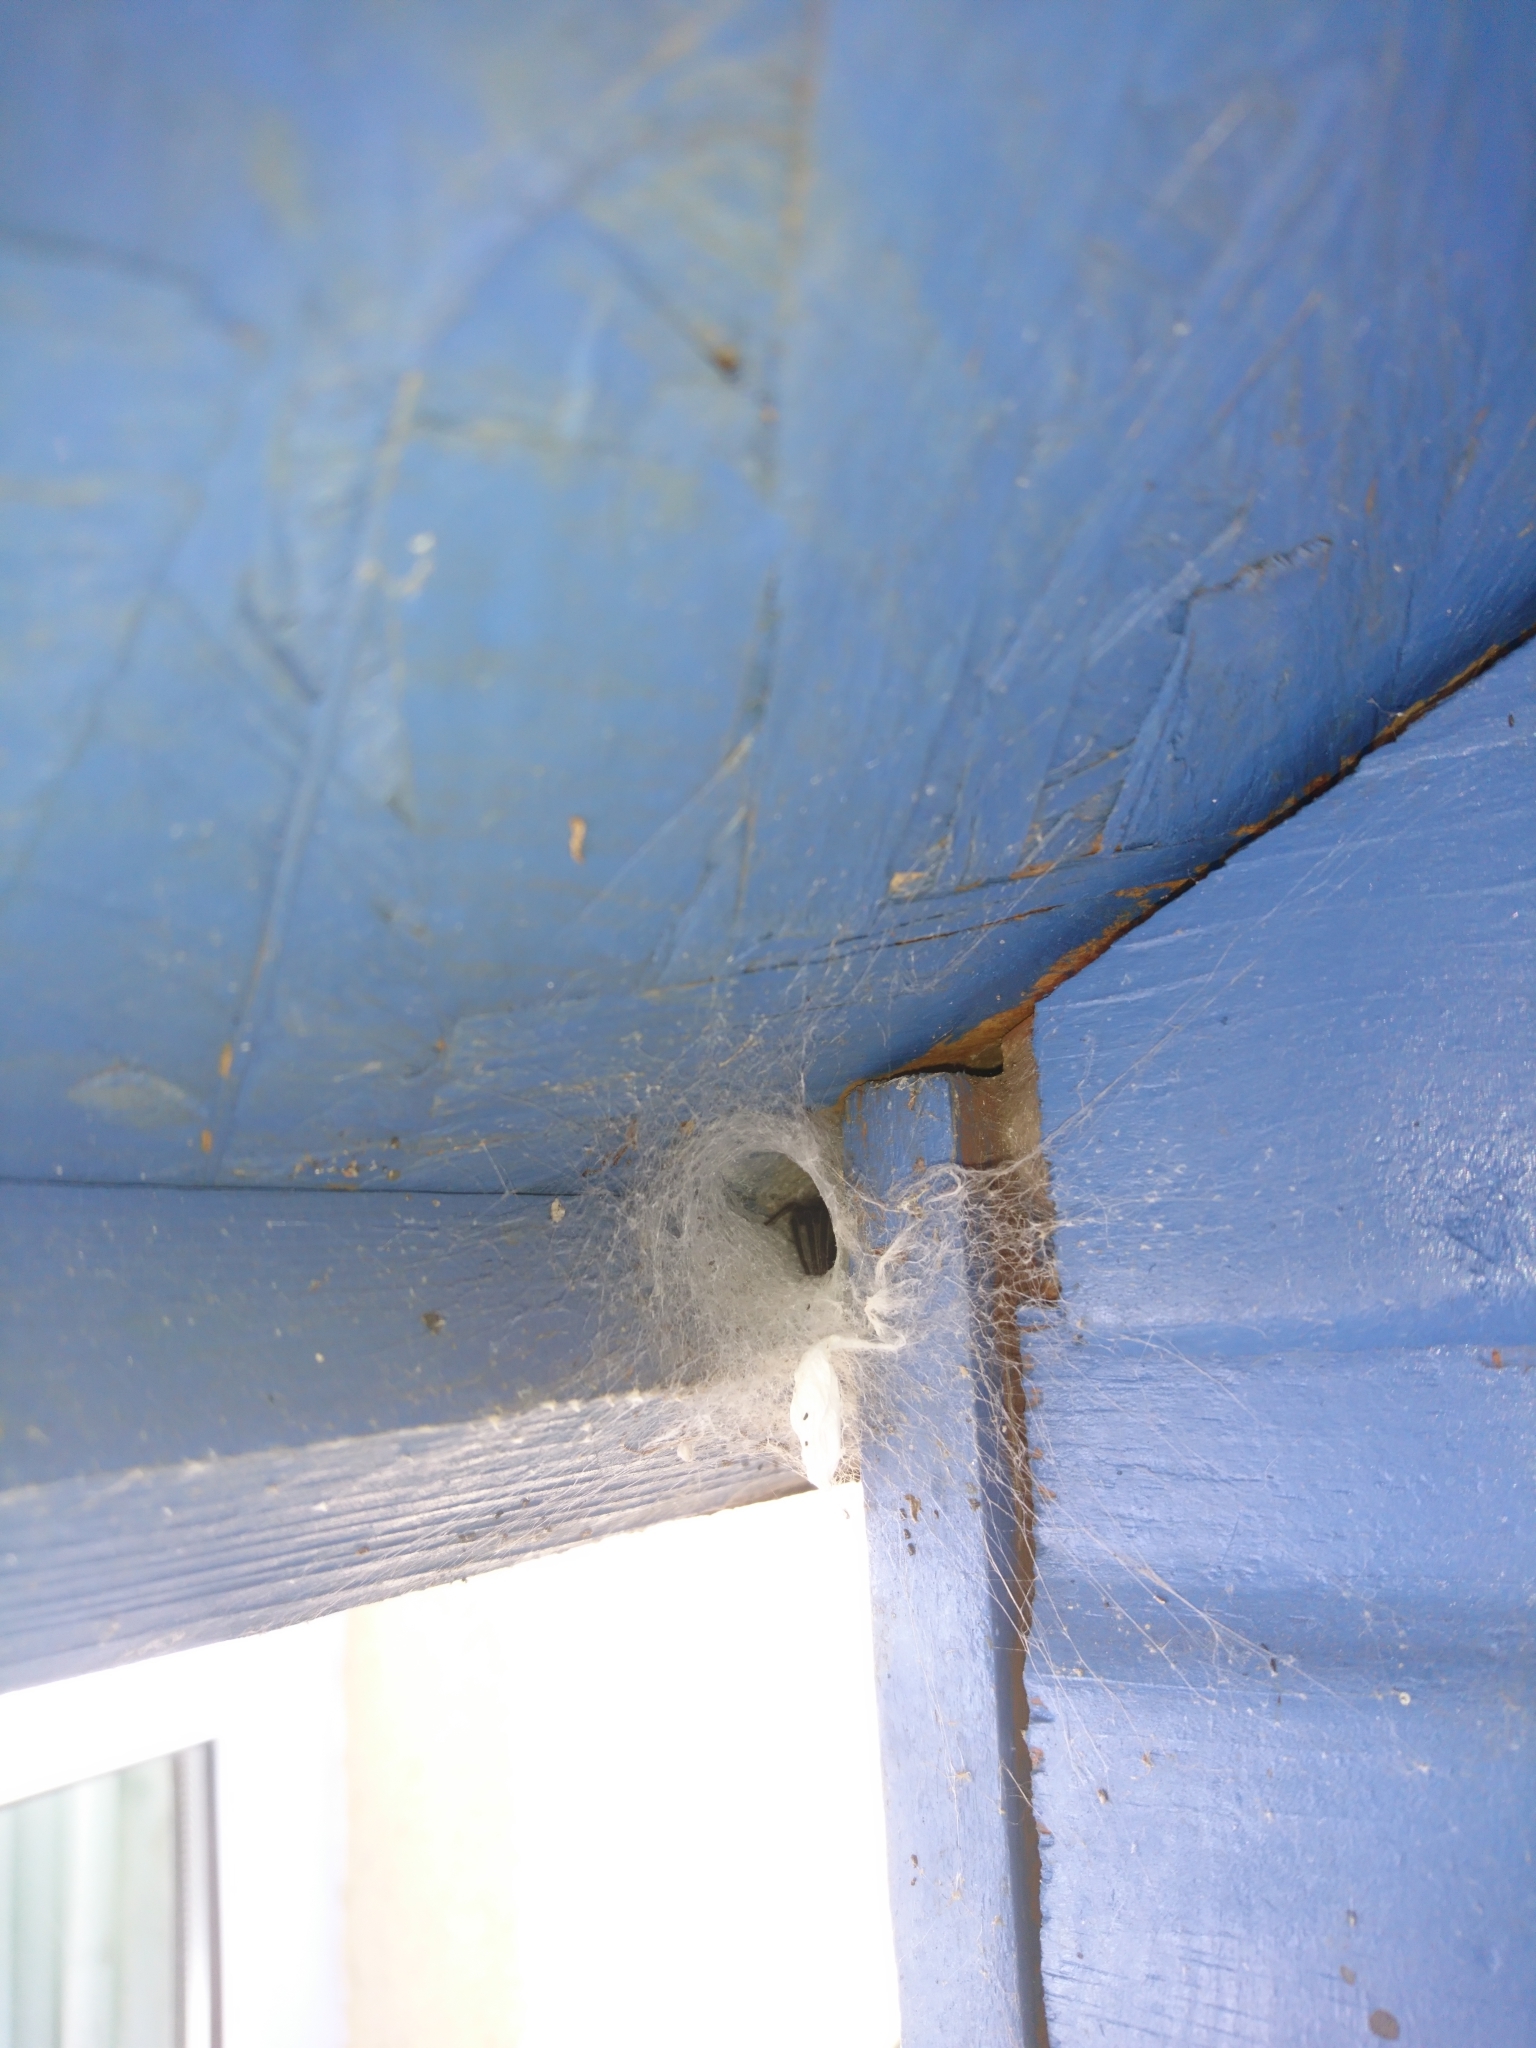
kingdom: Animalia
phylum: Arthropoda
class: Arachnida
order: Araneae
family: Segestriidae
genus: Segestria
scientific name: Segestria florentina
